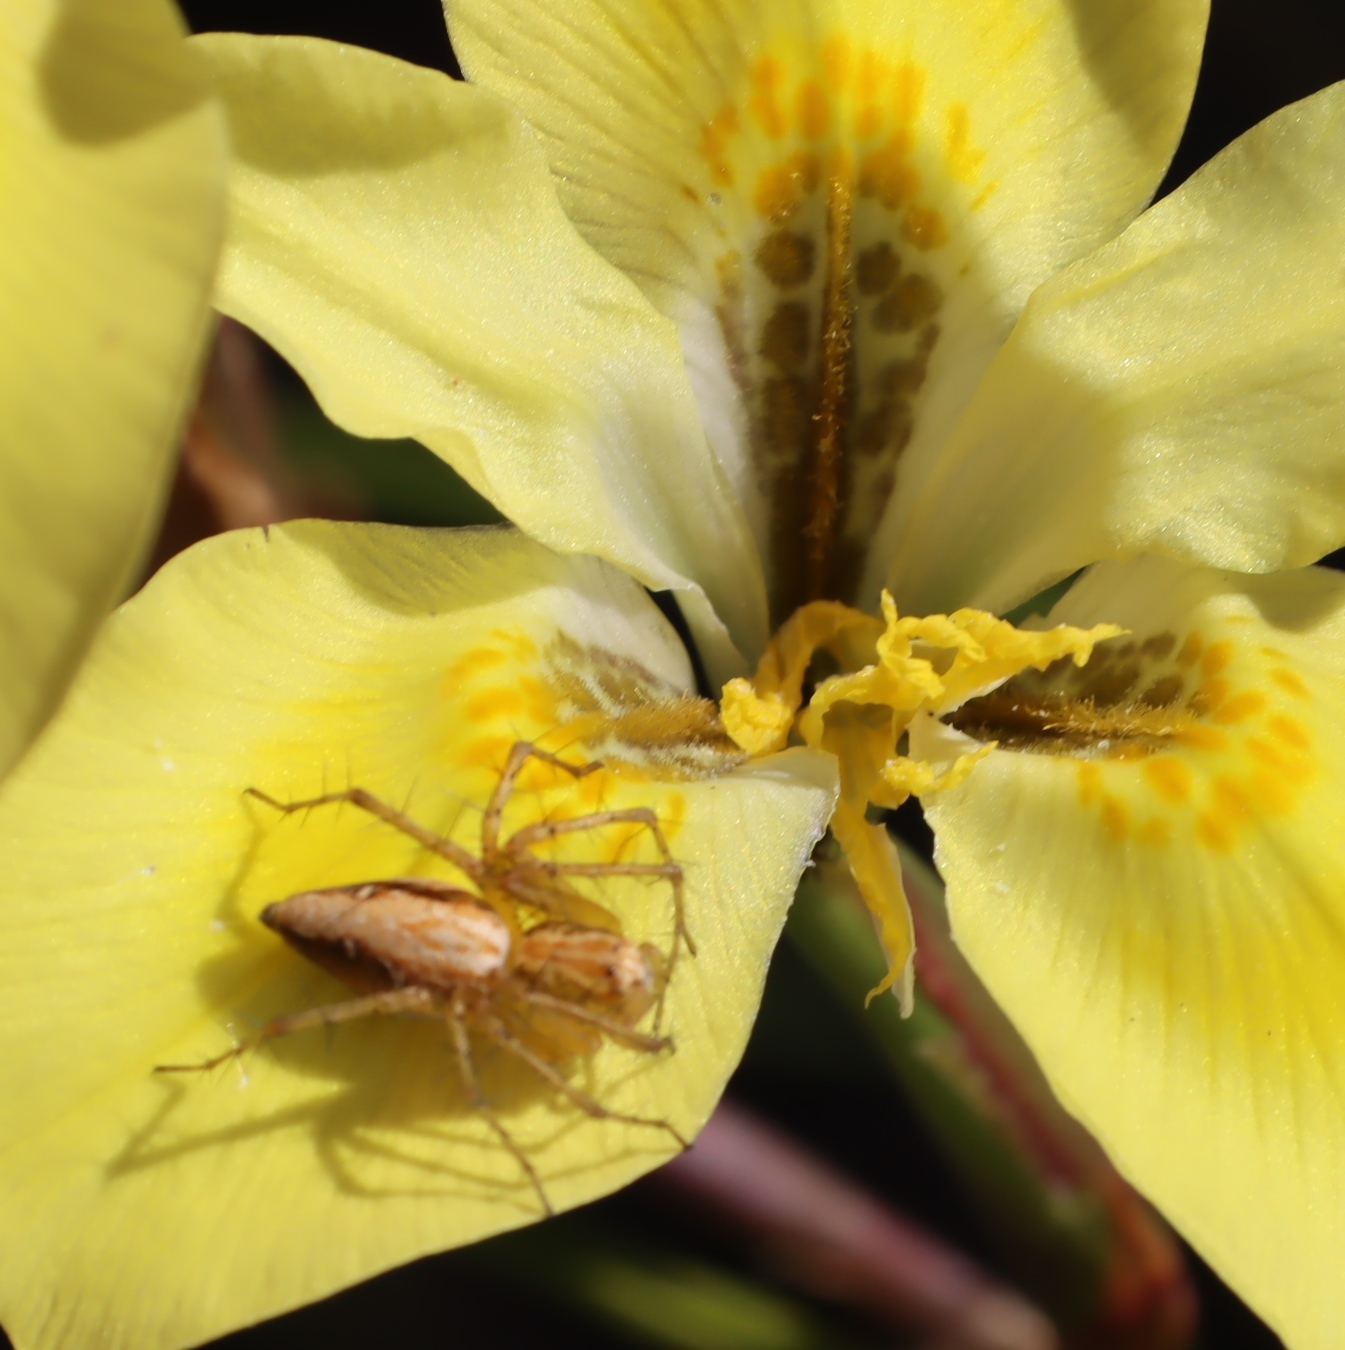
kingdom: Animalia
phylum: Arthropoda
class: Arachnida
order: Araneae
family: Oxyopidae
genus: Oxyopes
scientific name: Oxyopes affinis
